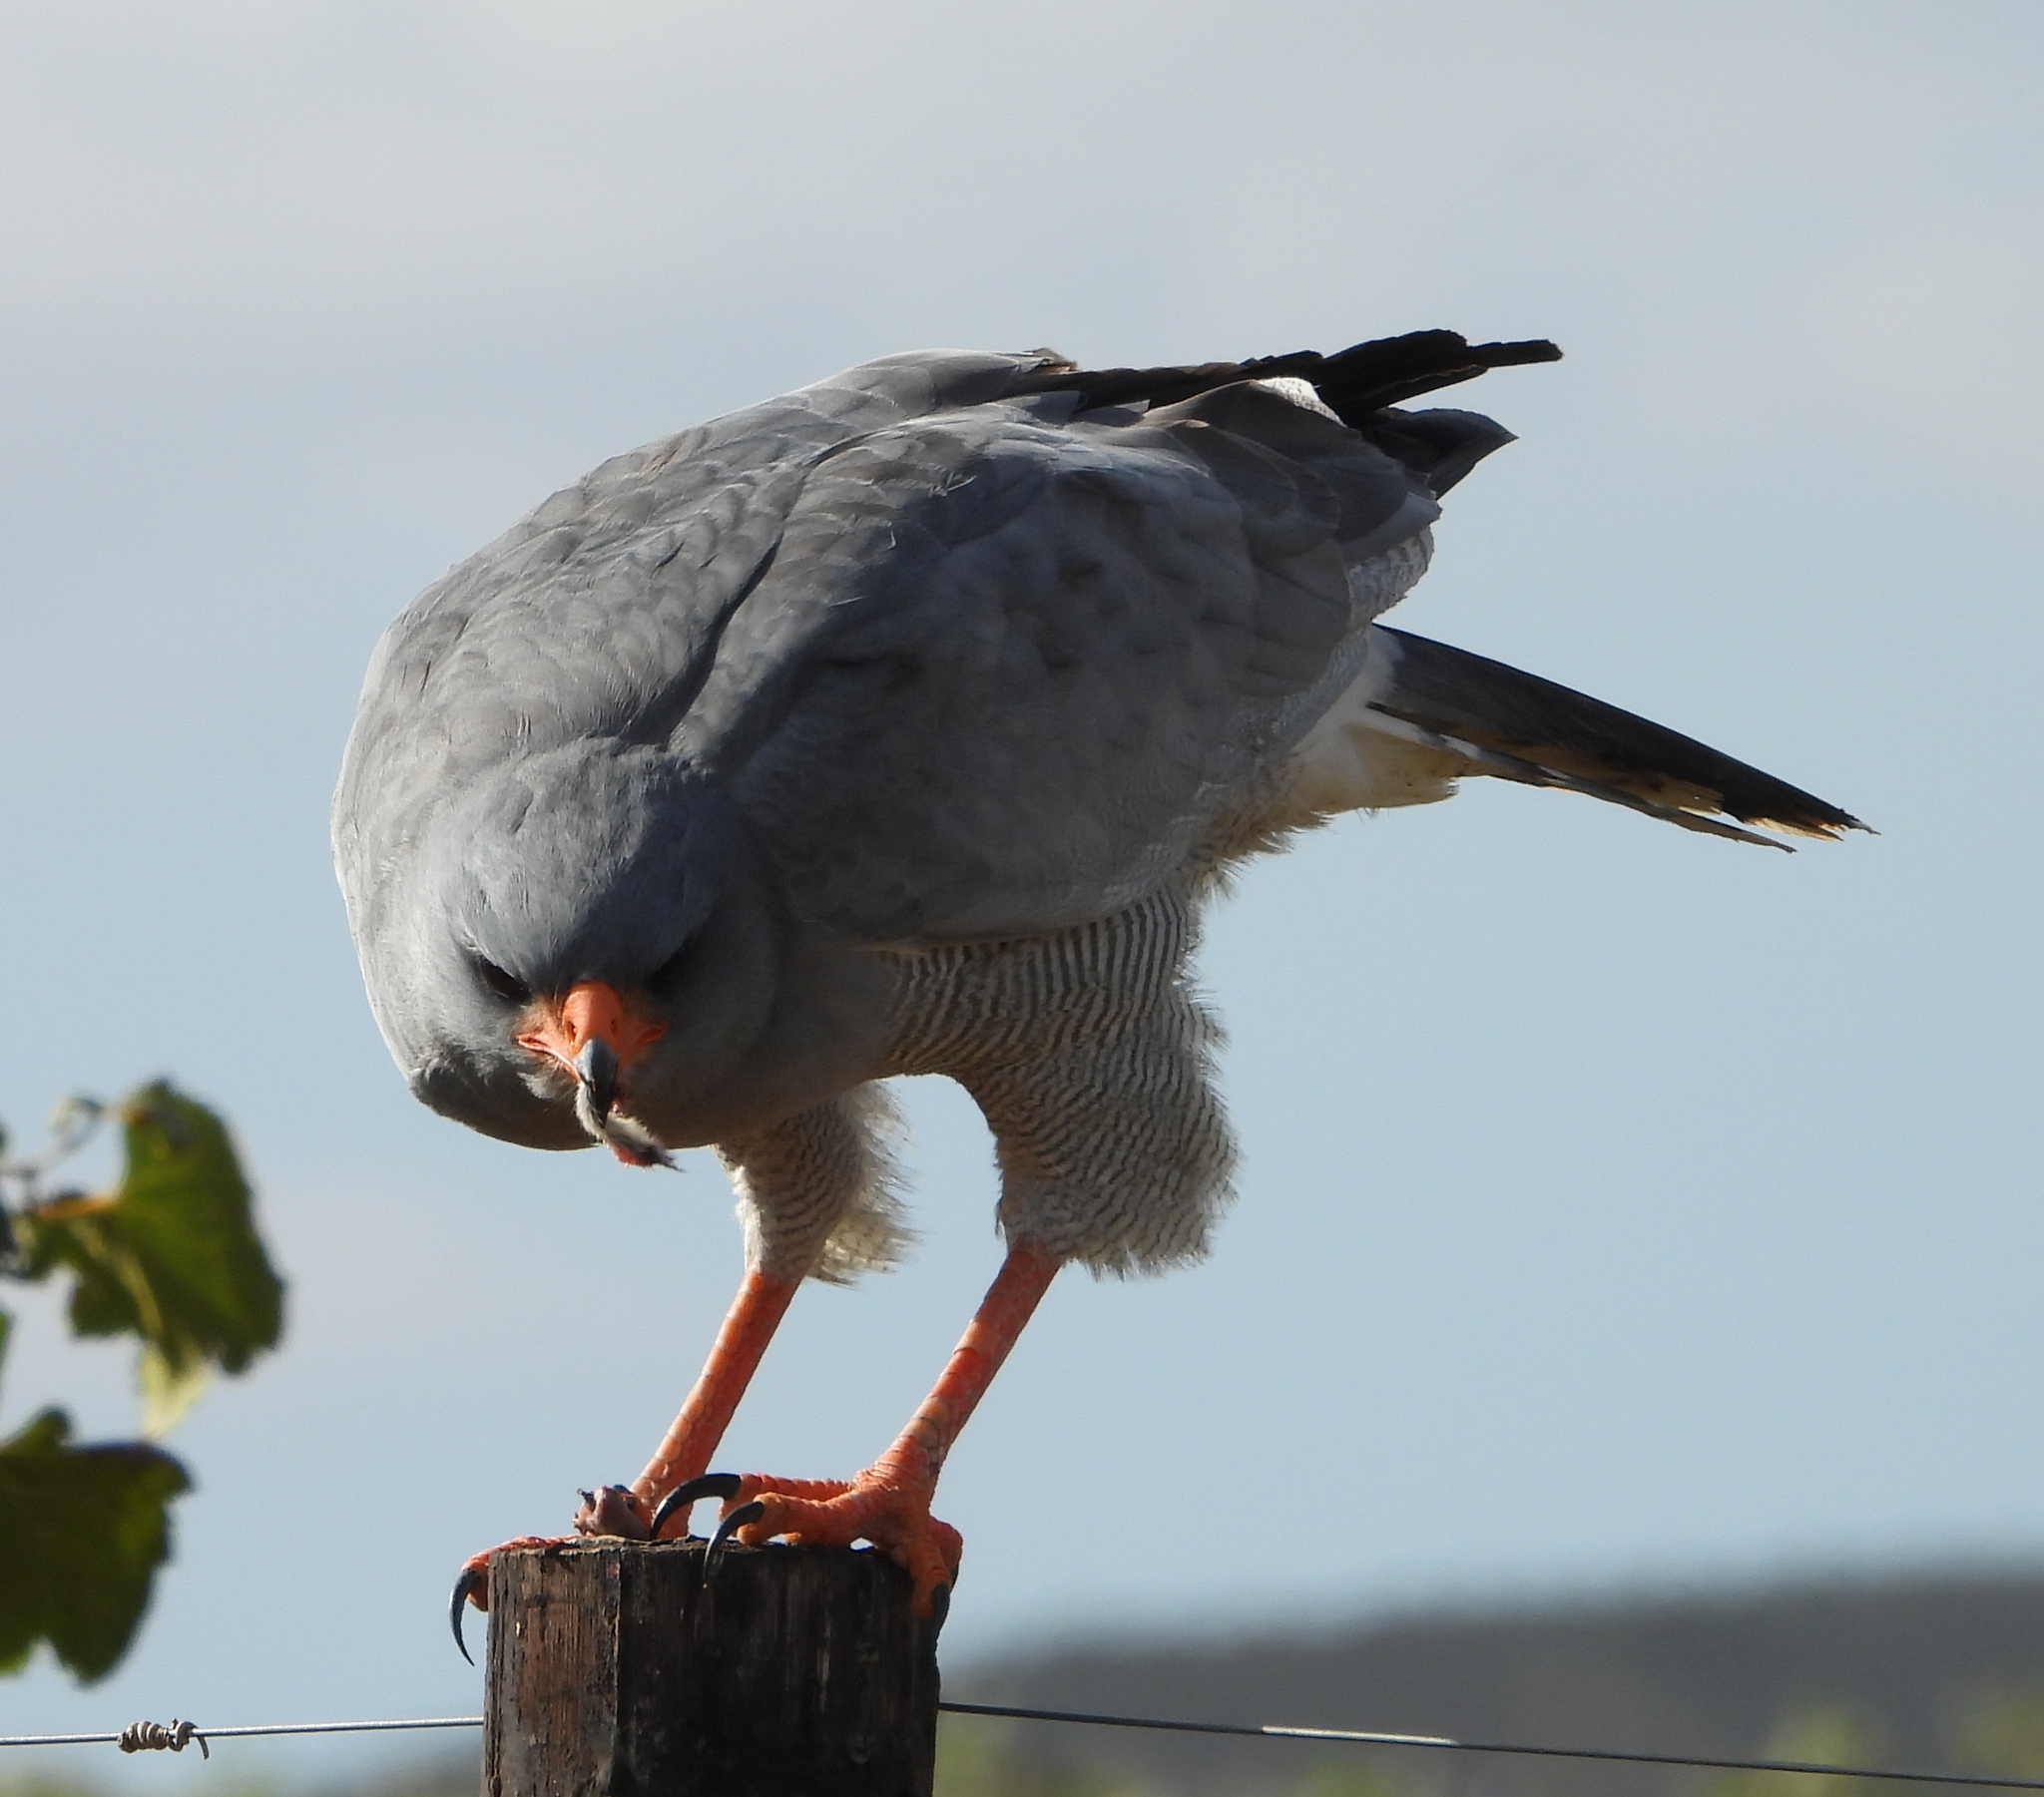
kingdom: Animalia
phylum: Chordata
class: Aves
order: Accipitriformes
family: Accipitridae
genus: Melierax
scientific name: Melierax canorus
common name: Pale chanting-goshawk
